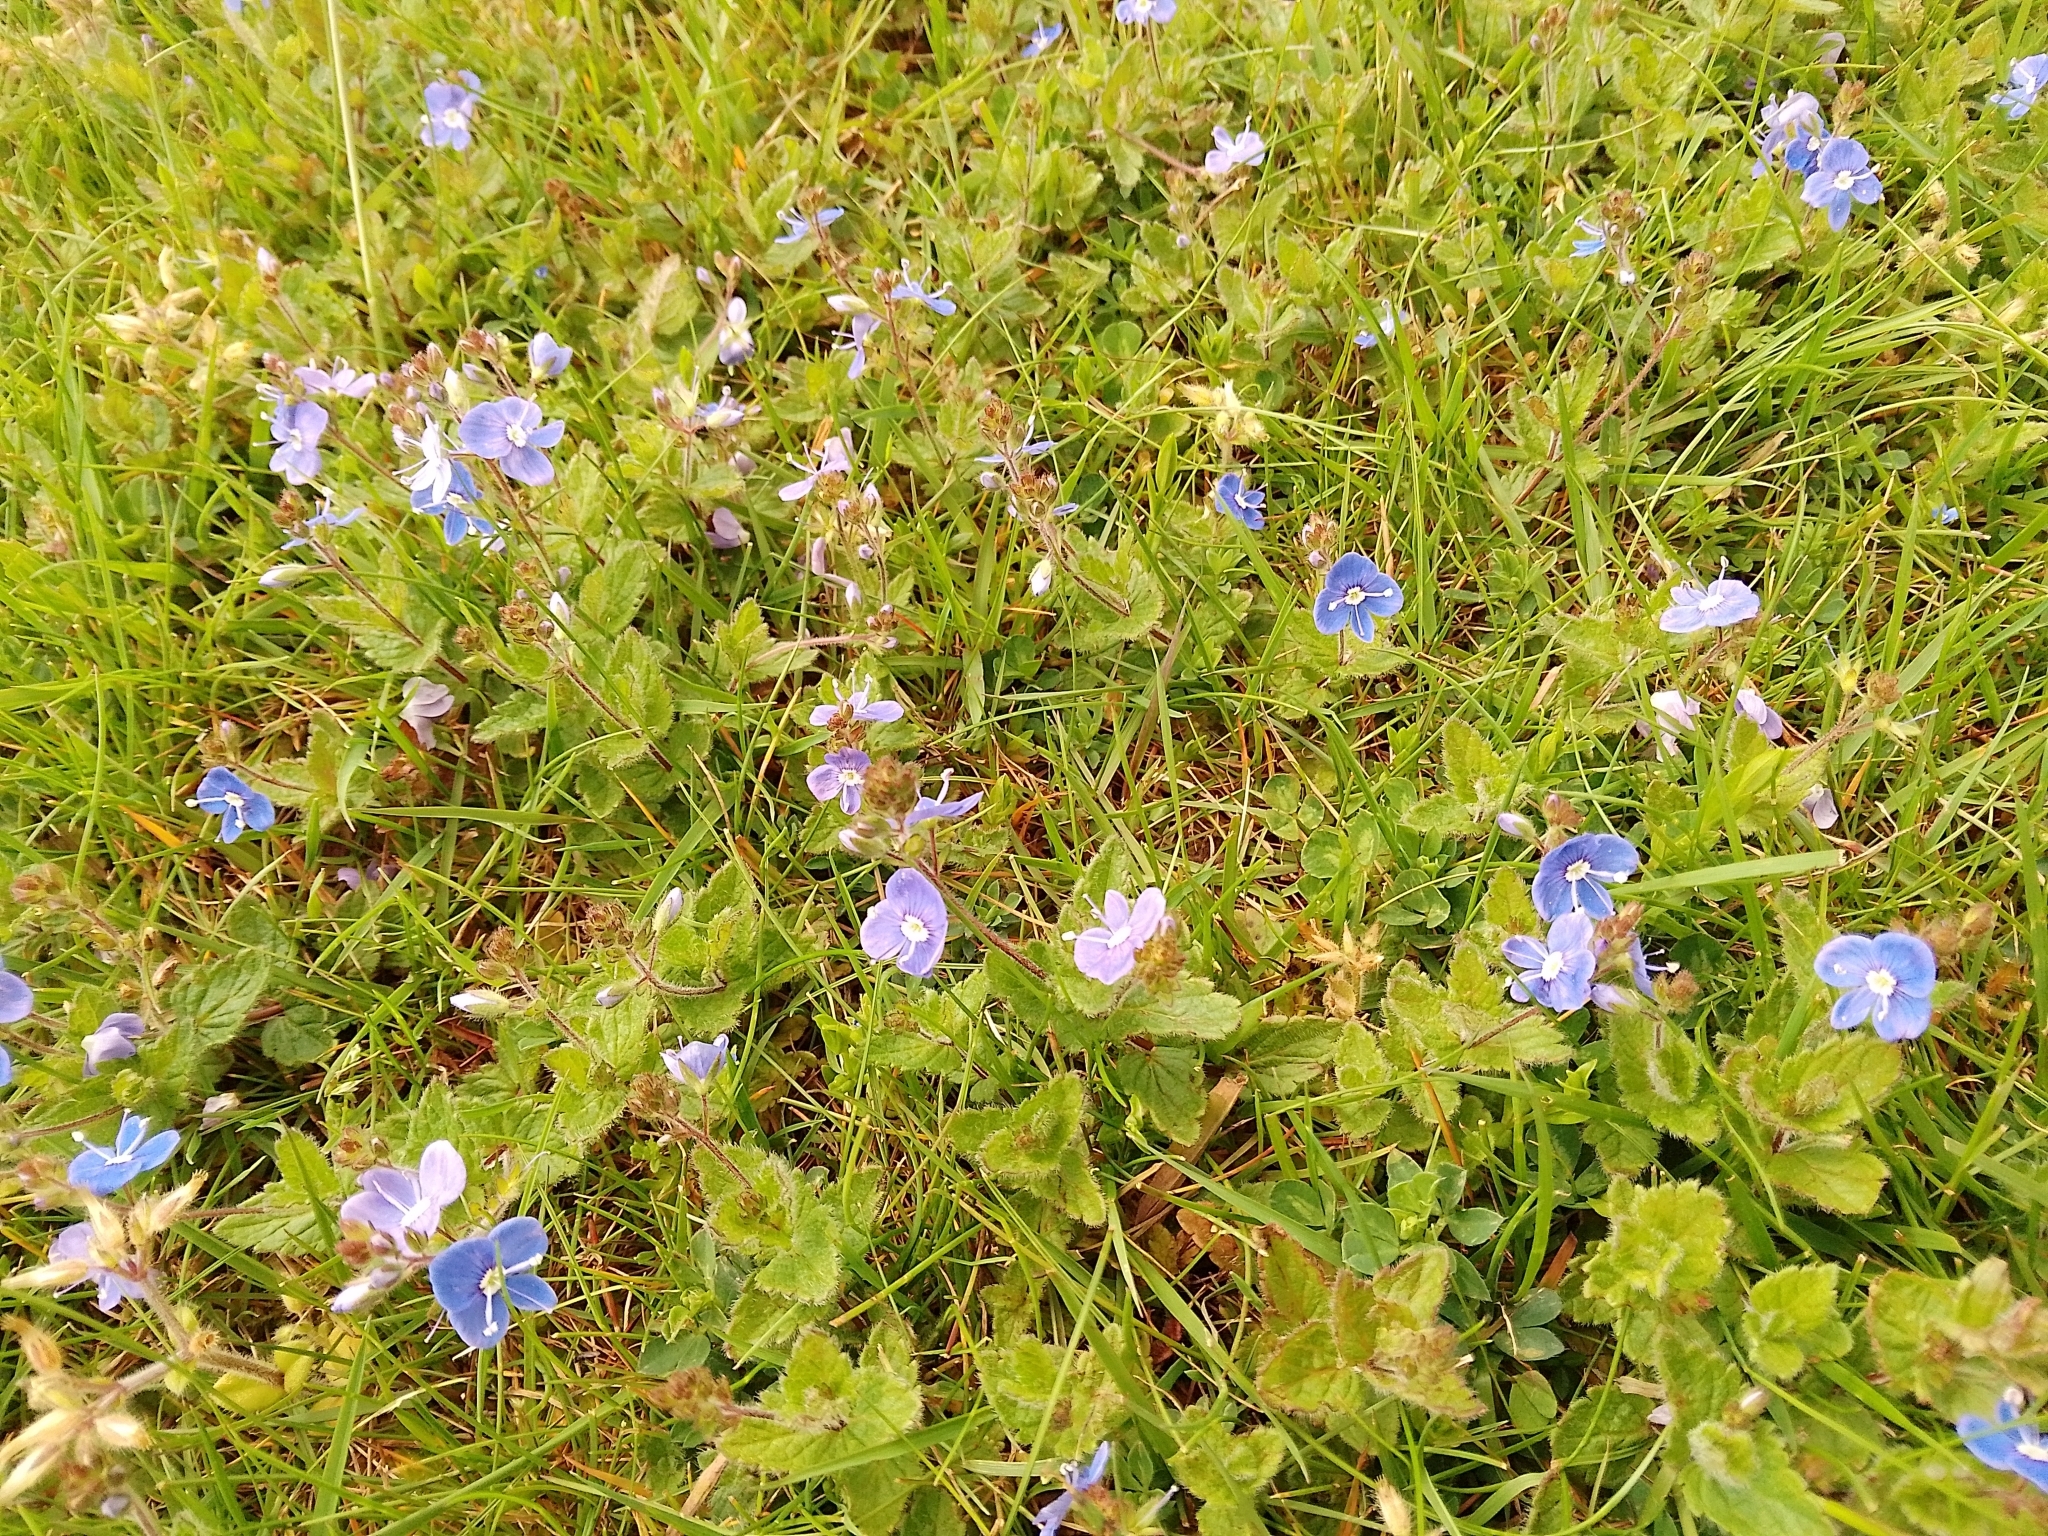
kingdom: Plantae
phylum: Tracheophyta
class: Magnoliopsida
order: Lamiales
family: Plantaginaceae
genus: Veronica
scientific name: Veronica chamaedrys
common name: Germander speedwell
